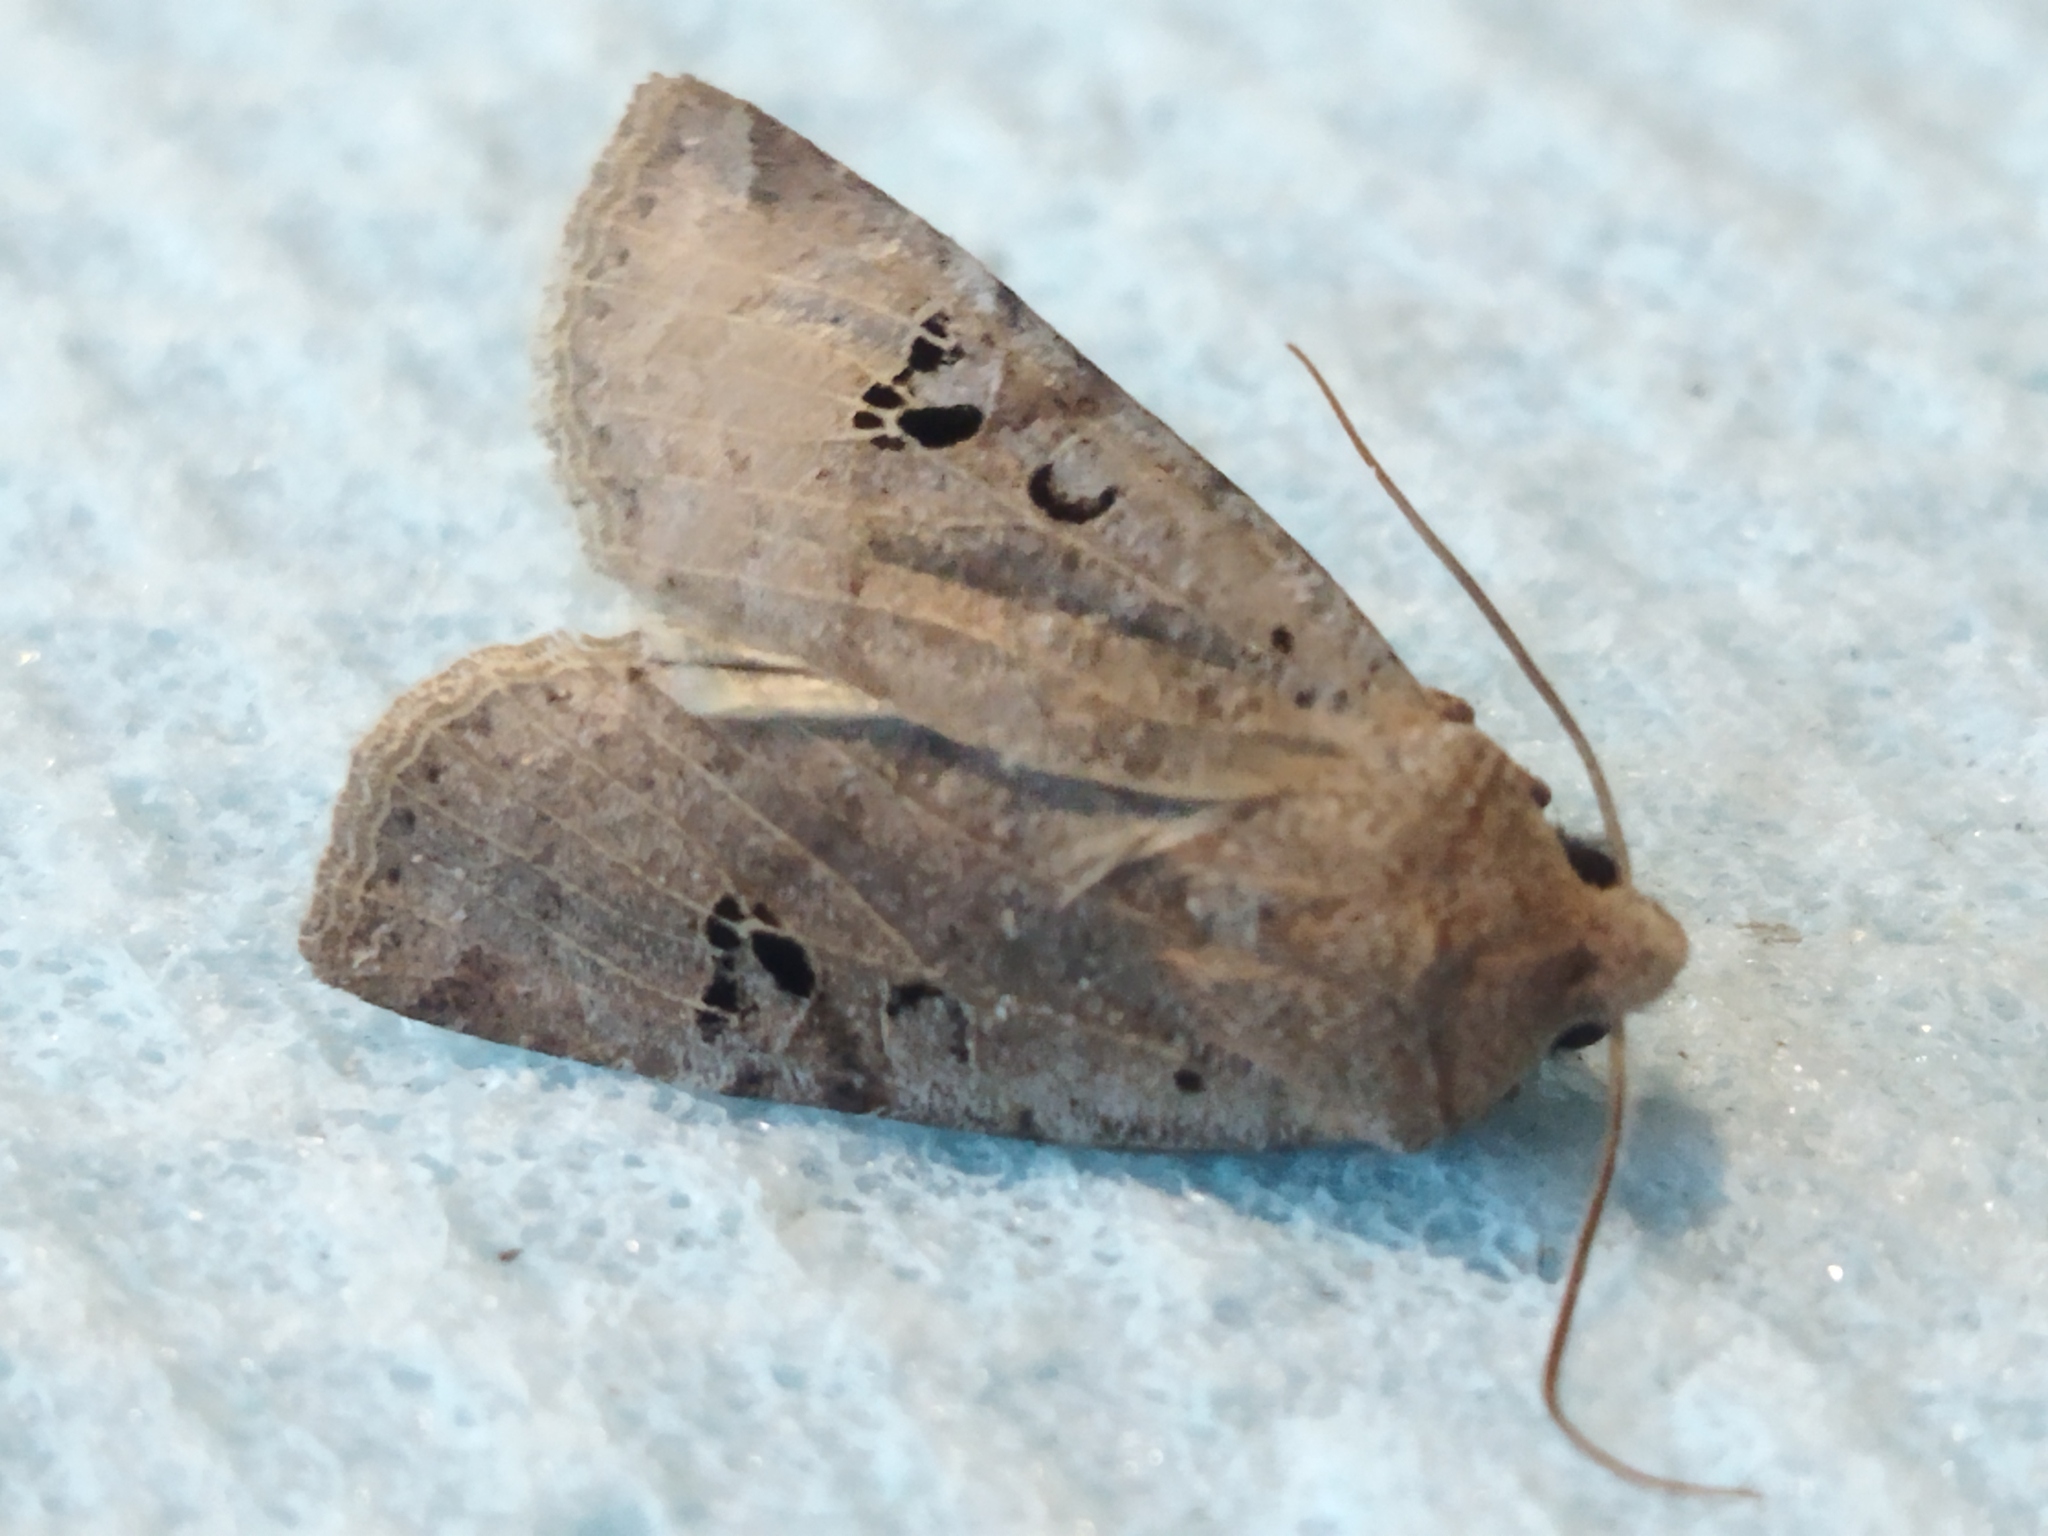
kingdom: Animalia
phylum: Arthropoda
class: Insecta
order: Lepidoptera
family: Noctuidae
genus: Conistra
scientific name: Conistra rubiginosa
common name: Black-spotted chestnut
